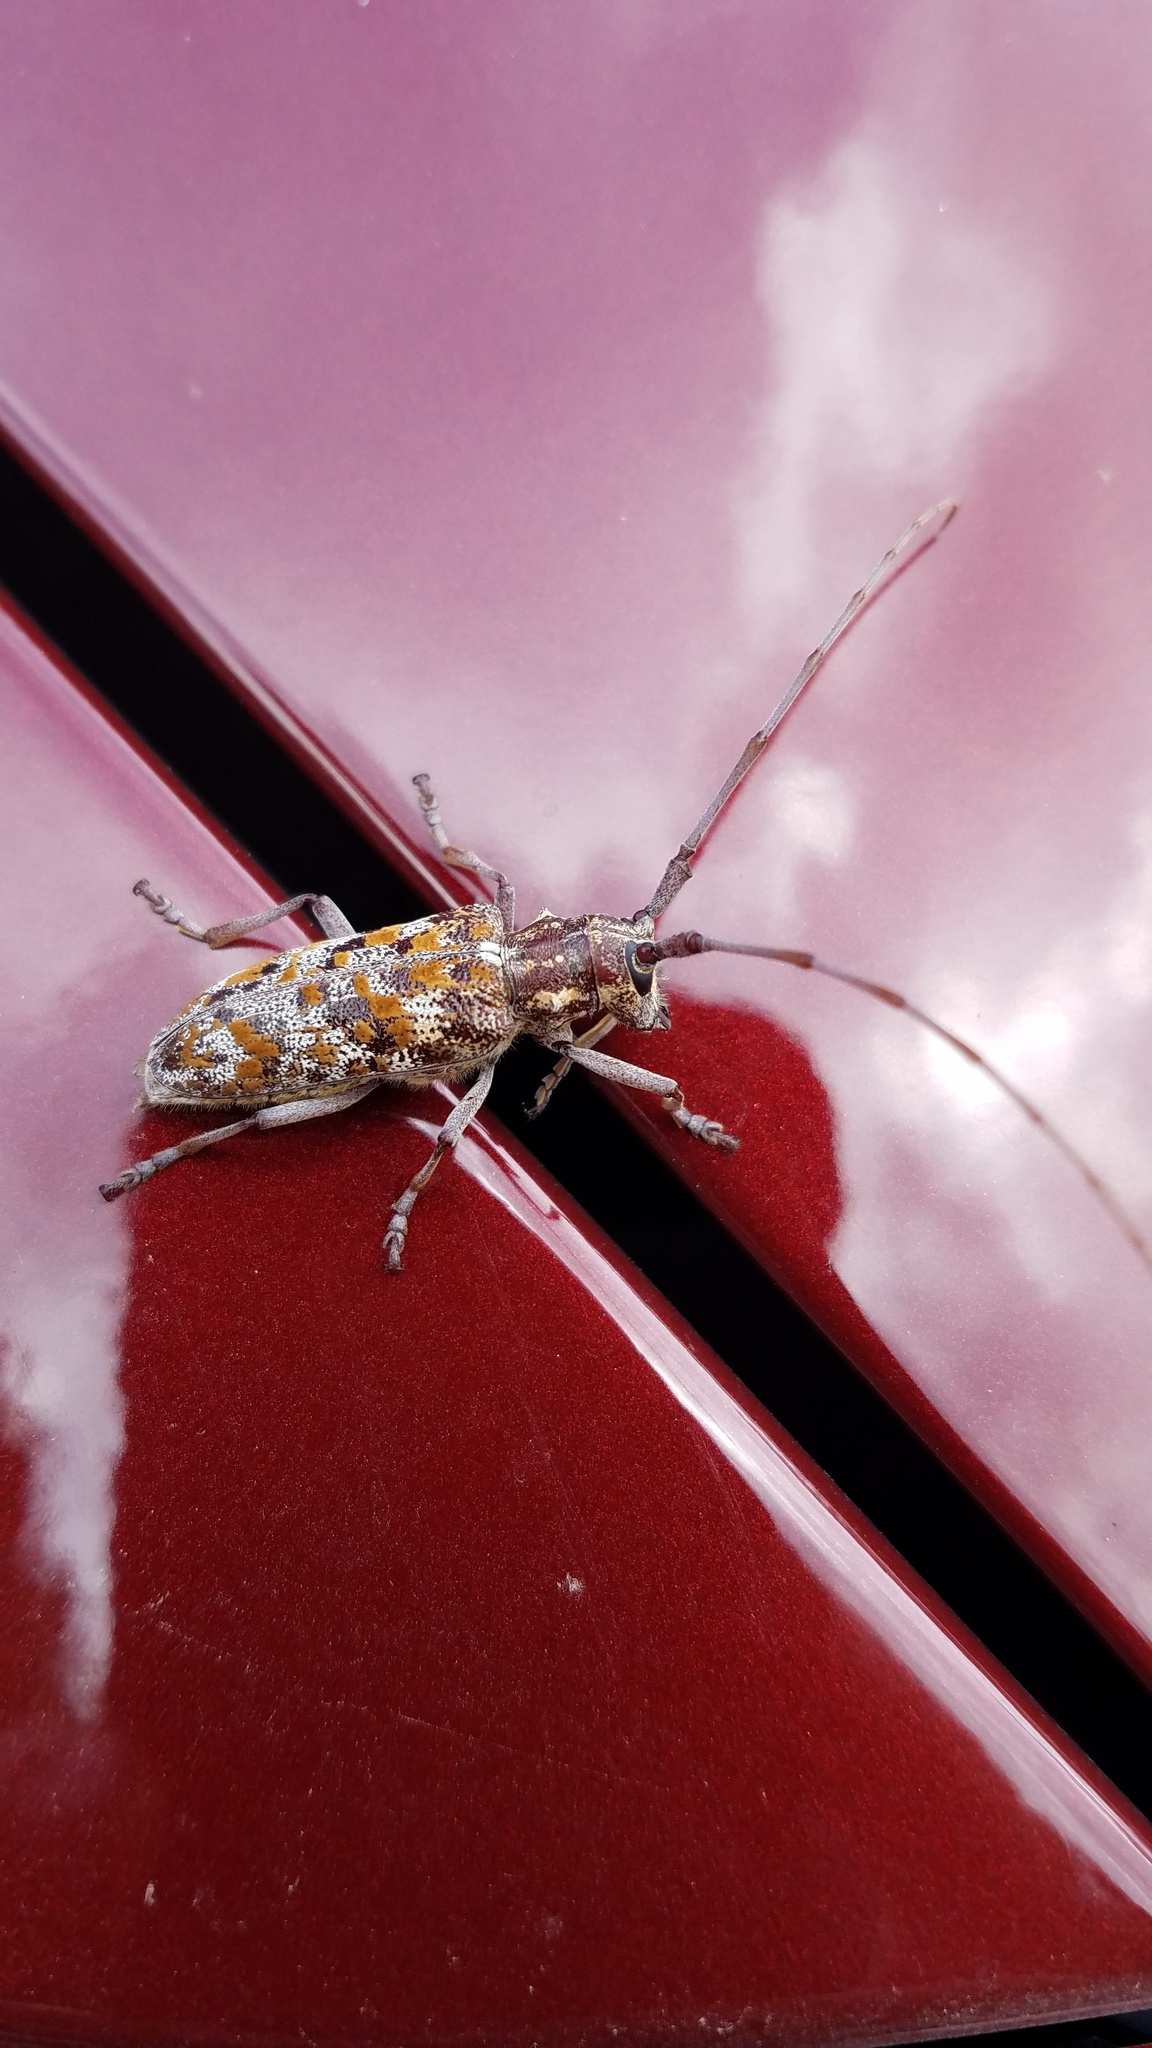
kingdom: Animalia
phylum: Arthropoda
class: Insecta
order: Coleoptera
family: Cerambycidae
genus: Monochamus
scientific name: Monochamus clamator
